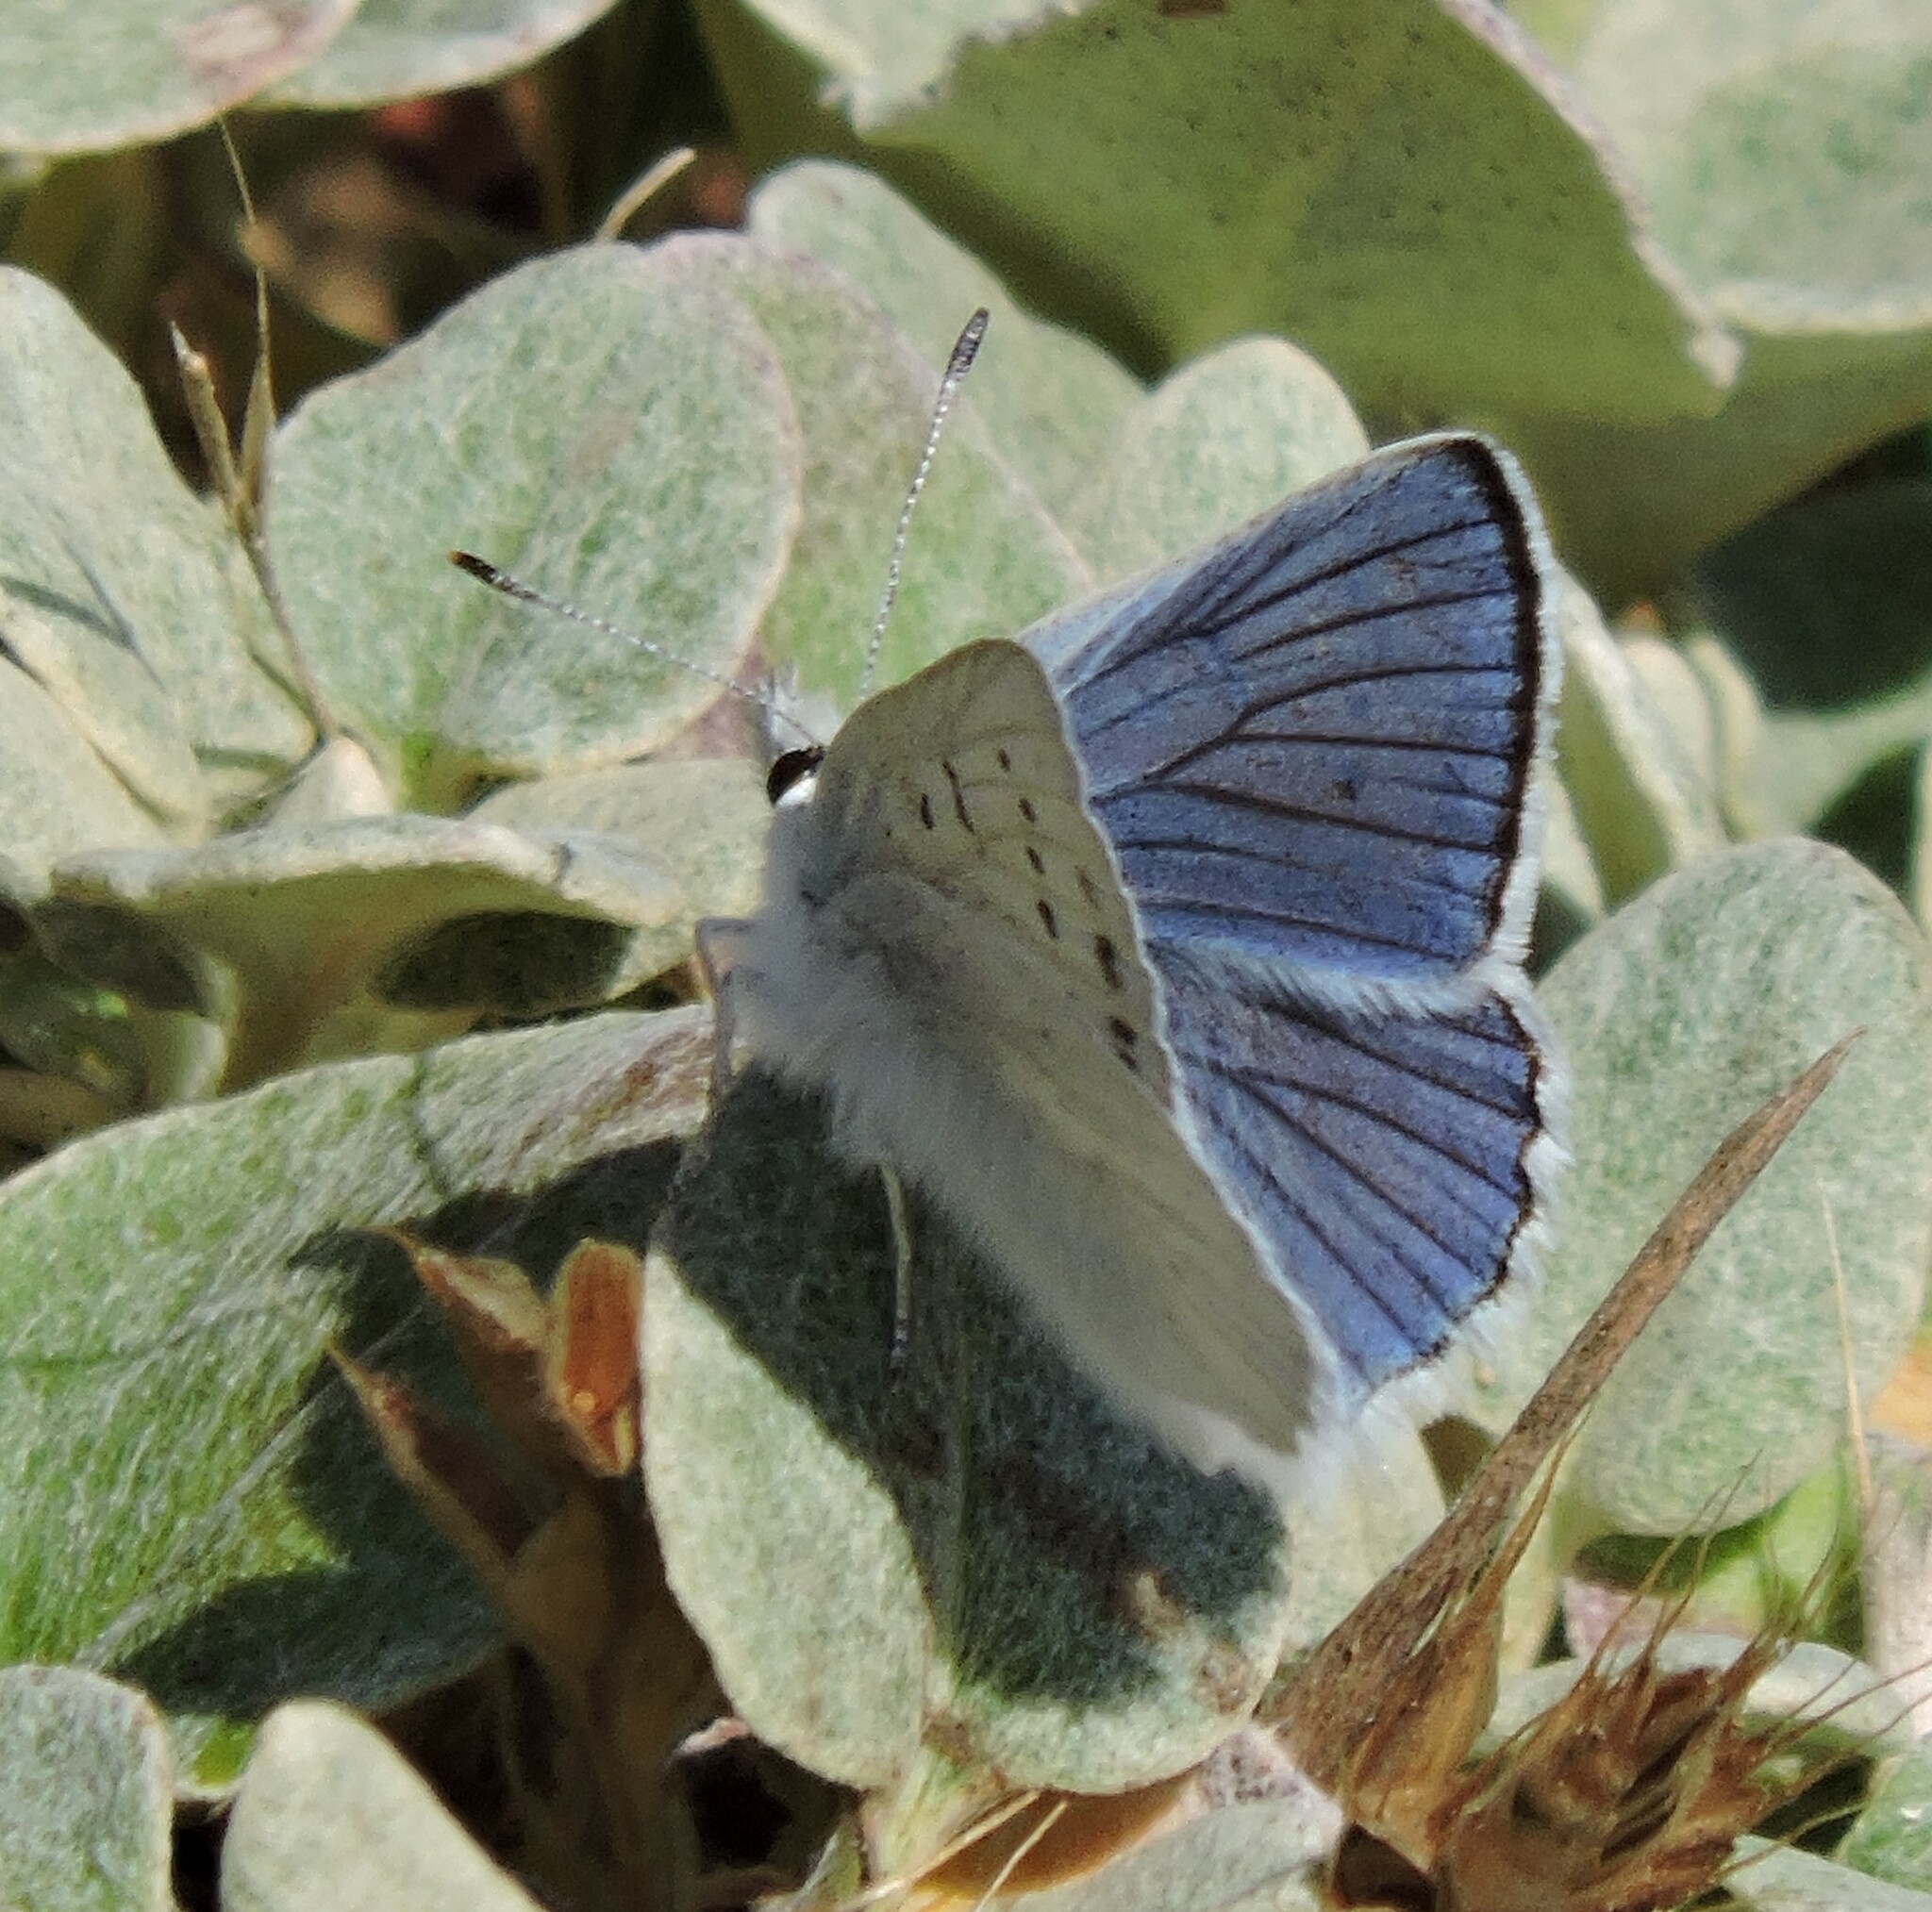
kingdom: Animalia
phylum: Arthropoda
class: Insecta
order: Lepidoptera
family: Lycaenidae
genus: Tharsalea
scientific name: Tharsalea heteronea
